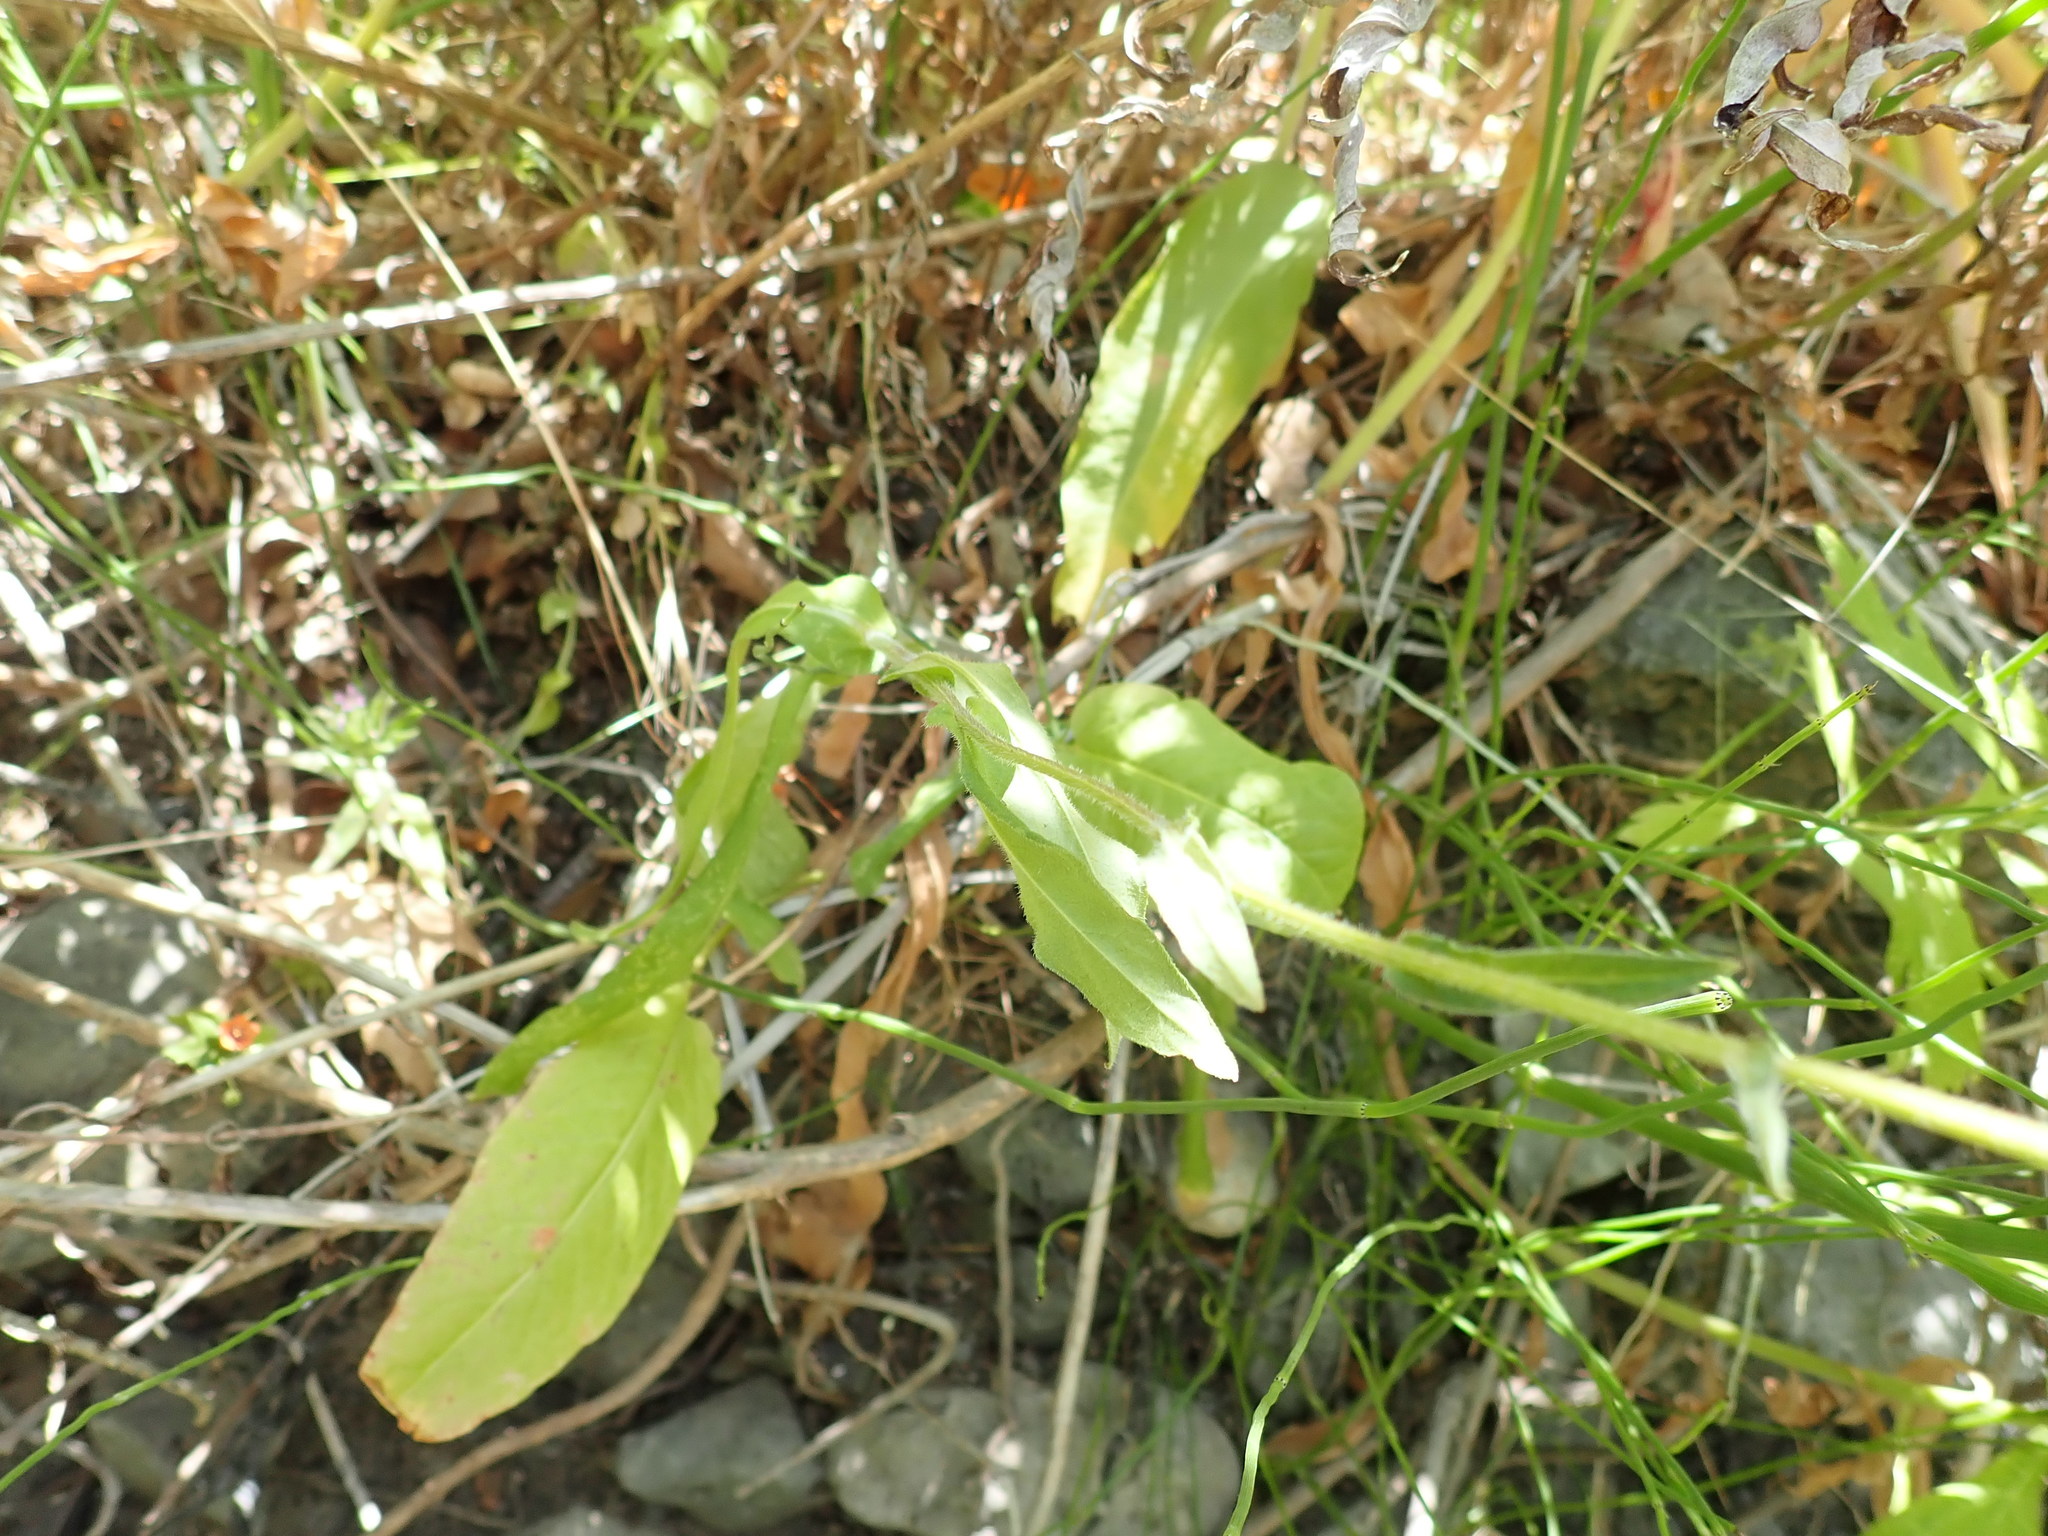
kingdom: Plantae
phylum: Tracheophyta
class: Magnoliopsida
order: Asterales
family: Asteraceae
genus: Erigeron
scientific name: Erigeron philadelphicus
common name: Robin's-plantain
